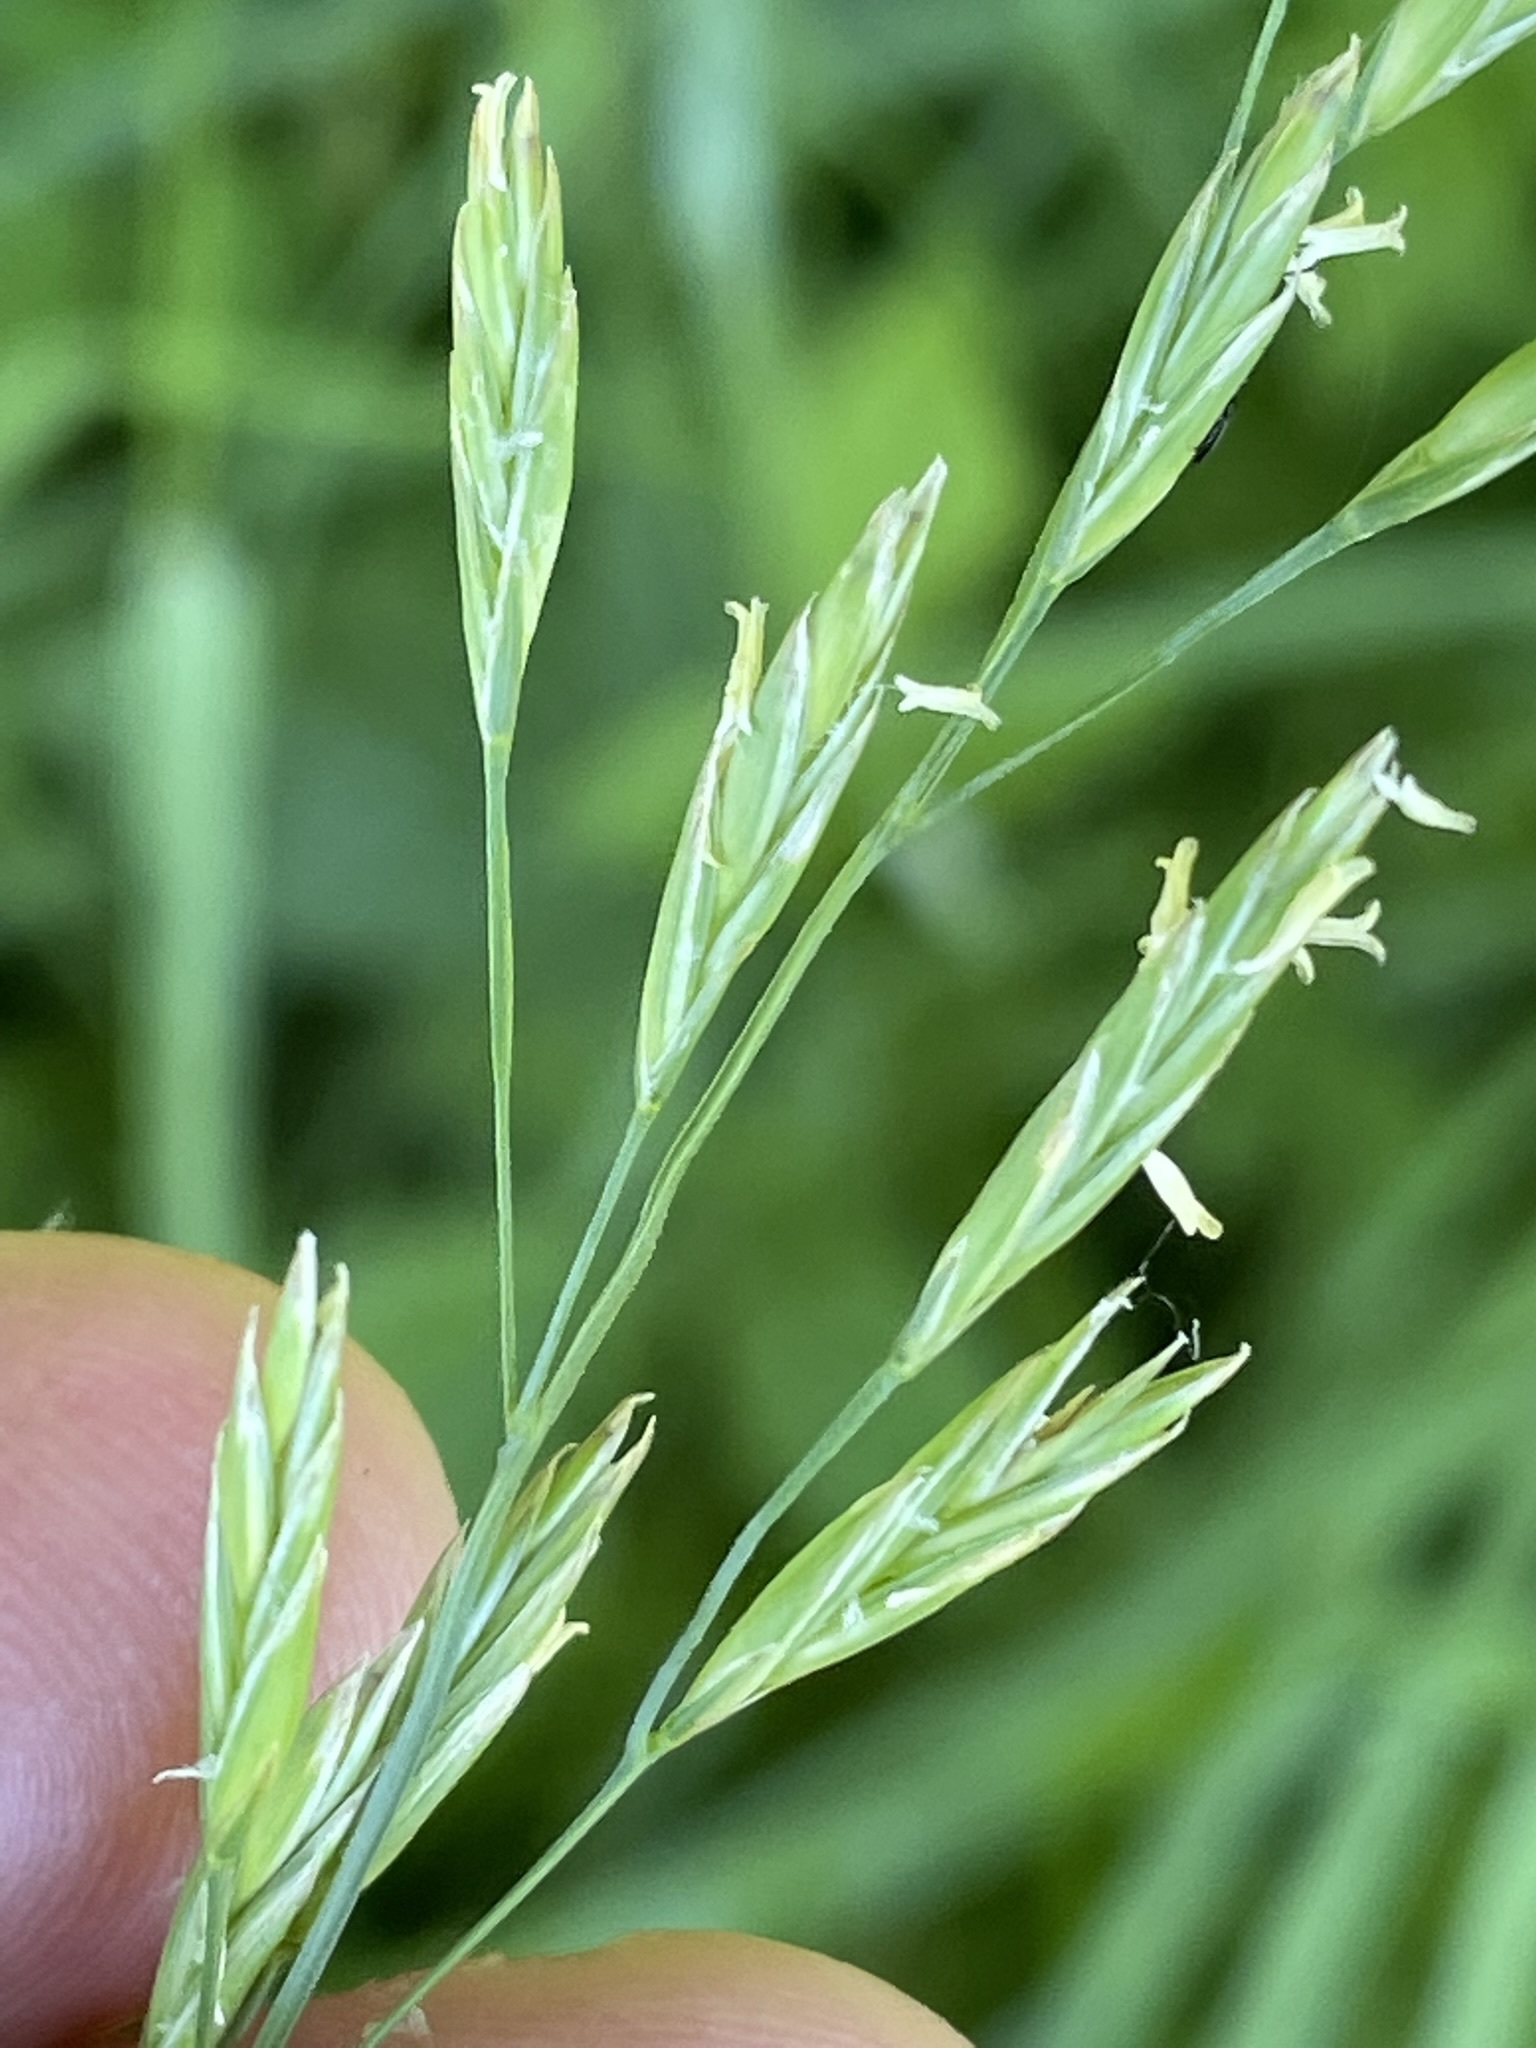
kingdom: Plantae
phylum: Tracheophyta
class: Liliopsida
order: Poales
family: Poaceae
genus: Lolium
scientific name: Lolium pratense
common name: Dover grass
